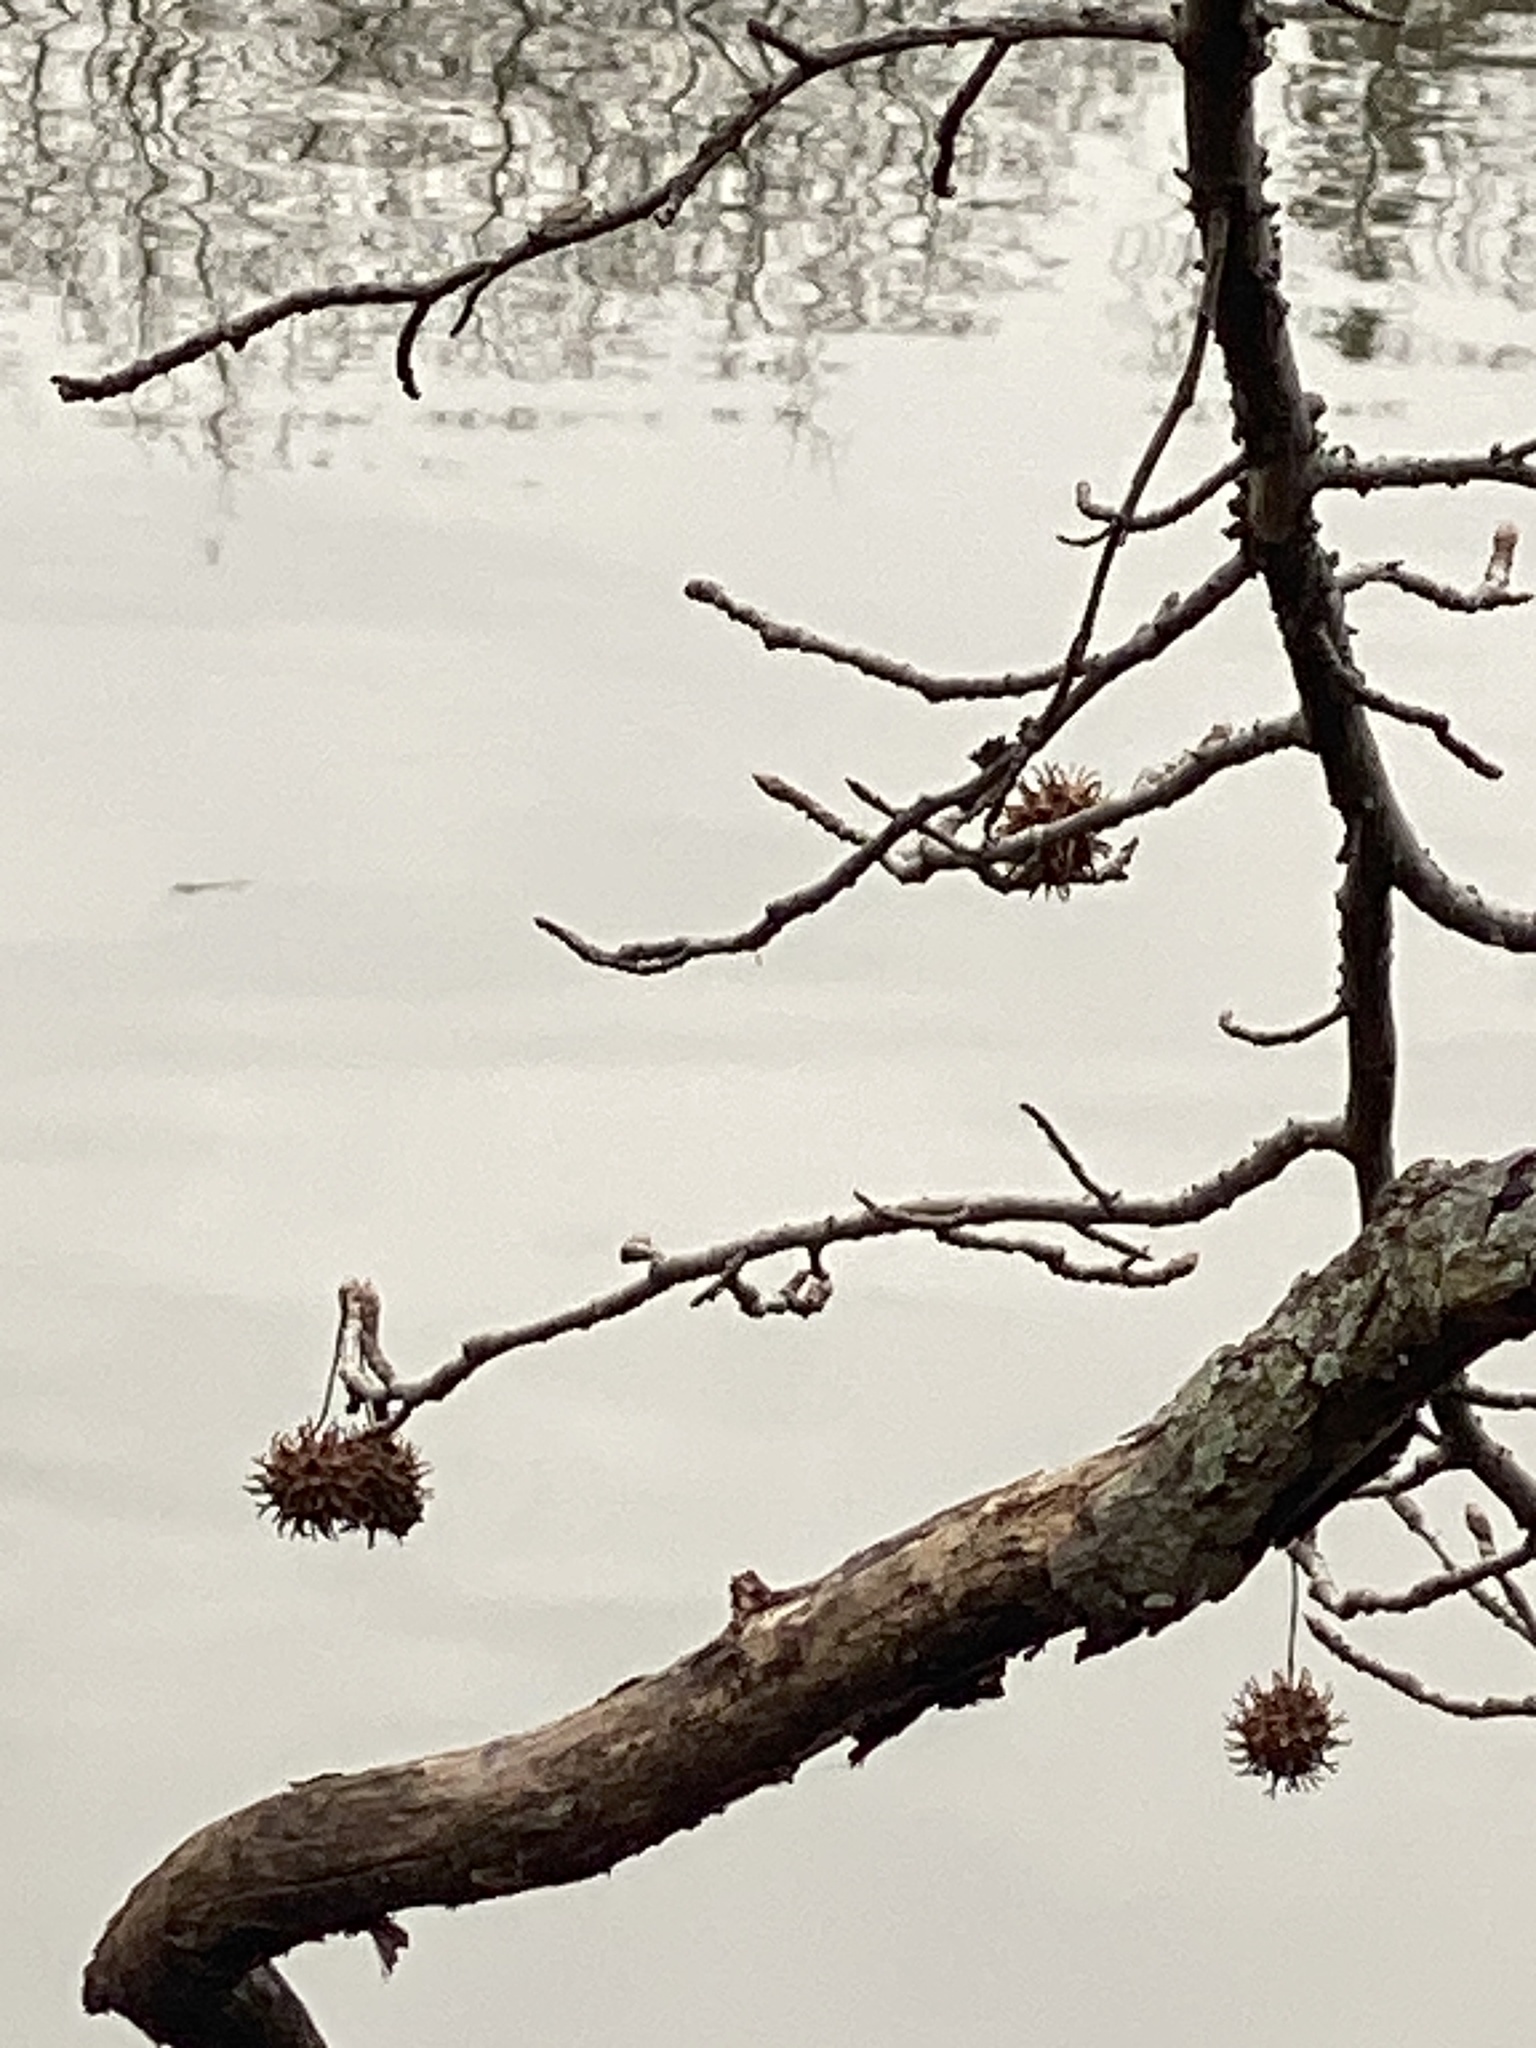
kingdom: Plantae
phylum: Tracheophyta
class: Magnoliopsida
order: Saxifragales
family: Altingiaceae
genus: Liquidambar
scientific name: Liquidambar styraciflua
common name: Sweet gum
